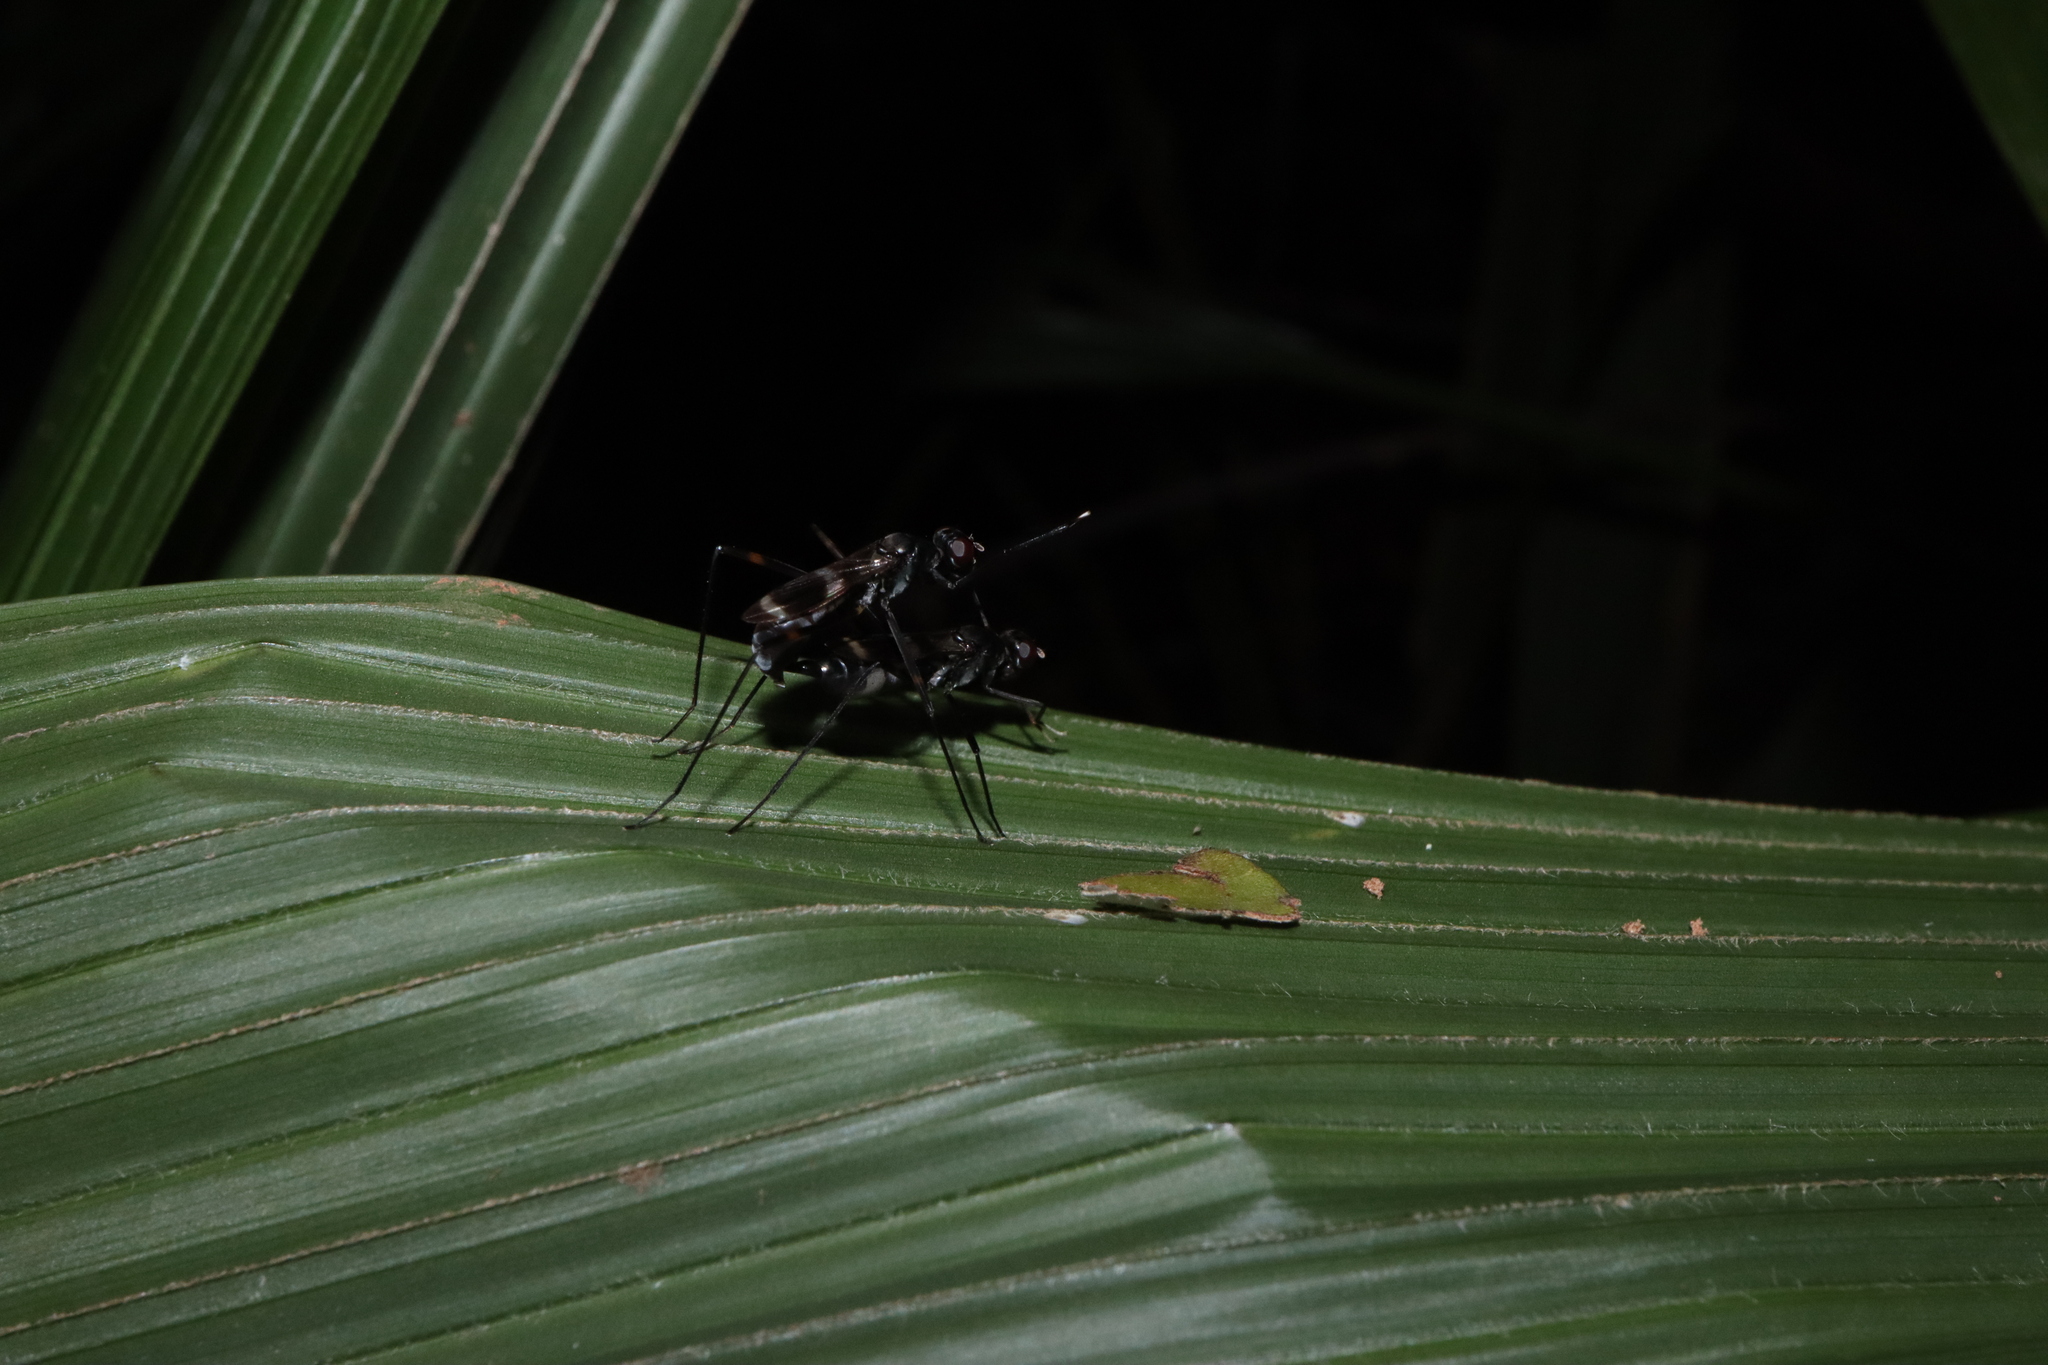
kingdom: Animalia
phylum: Arthropoda
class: Insecta
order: Diptera
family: Micropezidae
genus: Mimegralla
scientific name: Mimegralla australica
